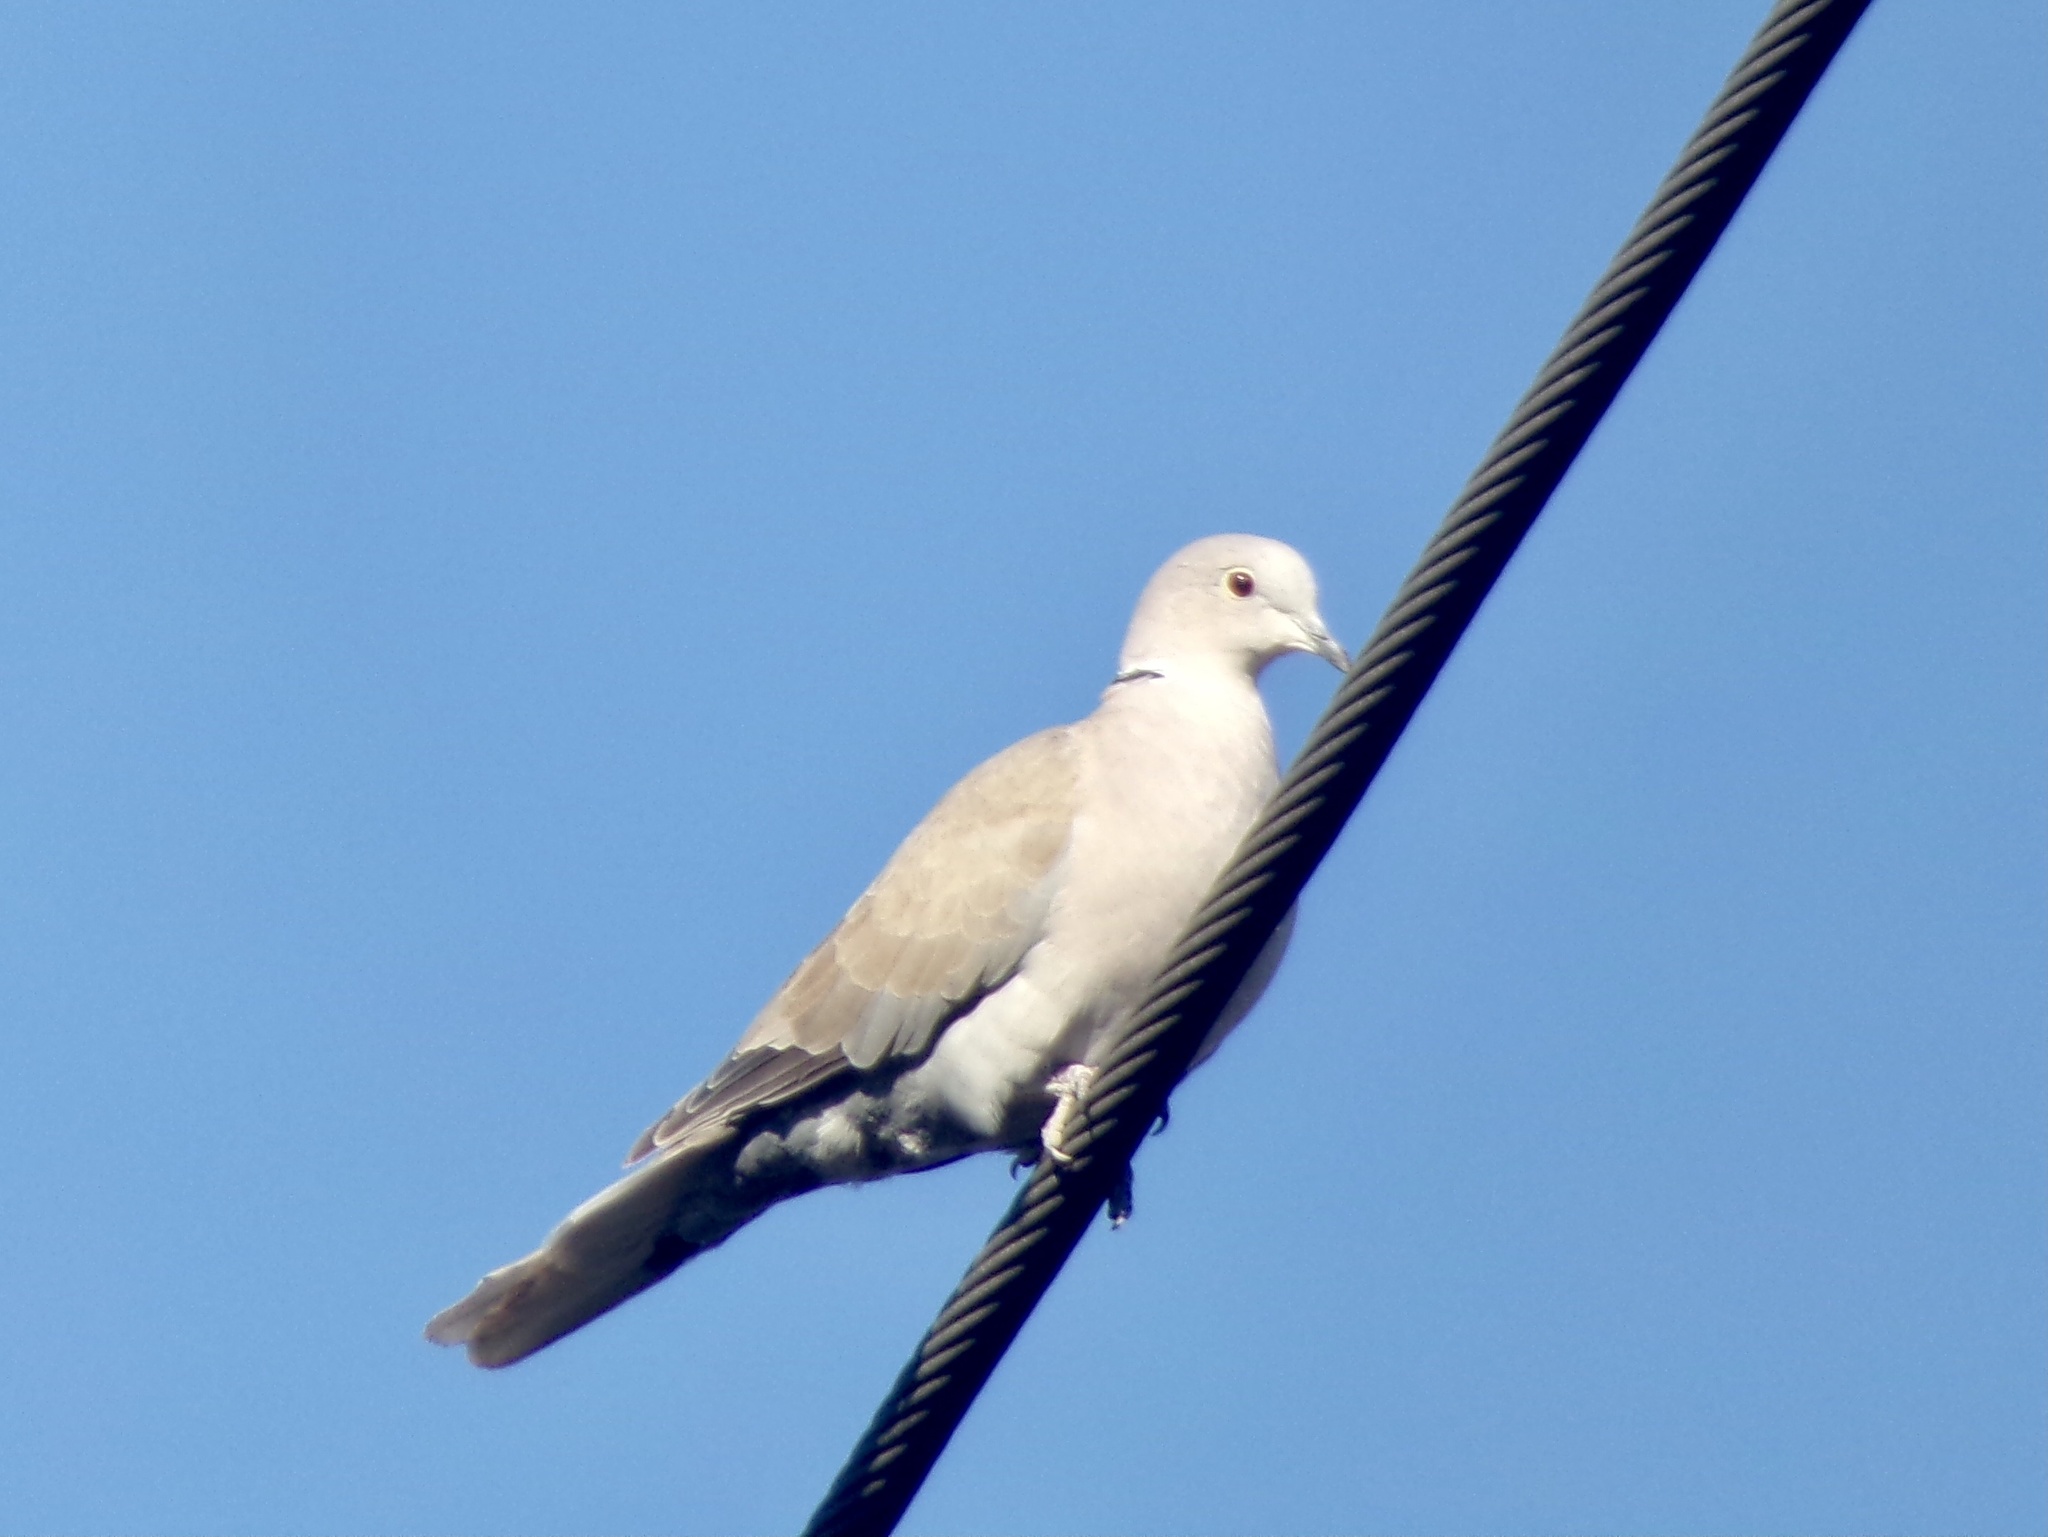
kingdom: Animalia
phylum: Chordata
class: Aves
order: Columbiformes
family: Columbidae
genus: Streptopelia
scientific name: Streptopelia decaocto
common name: Eurasian collared dove
